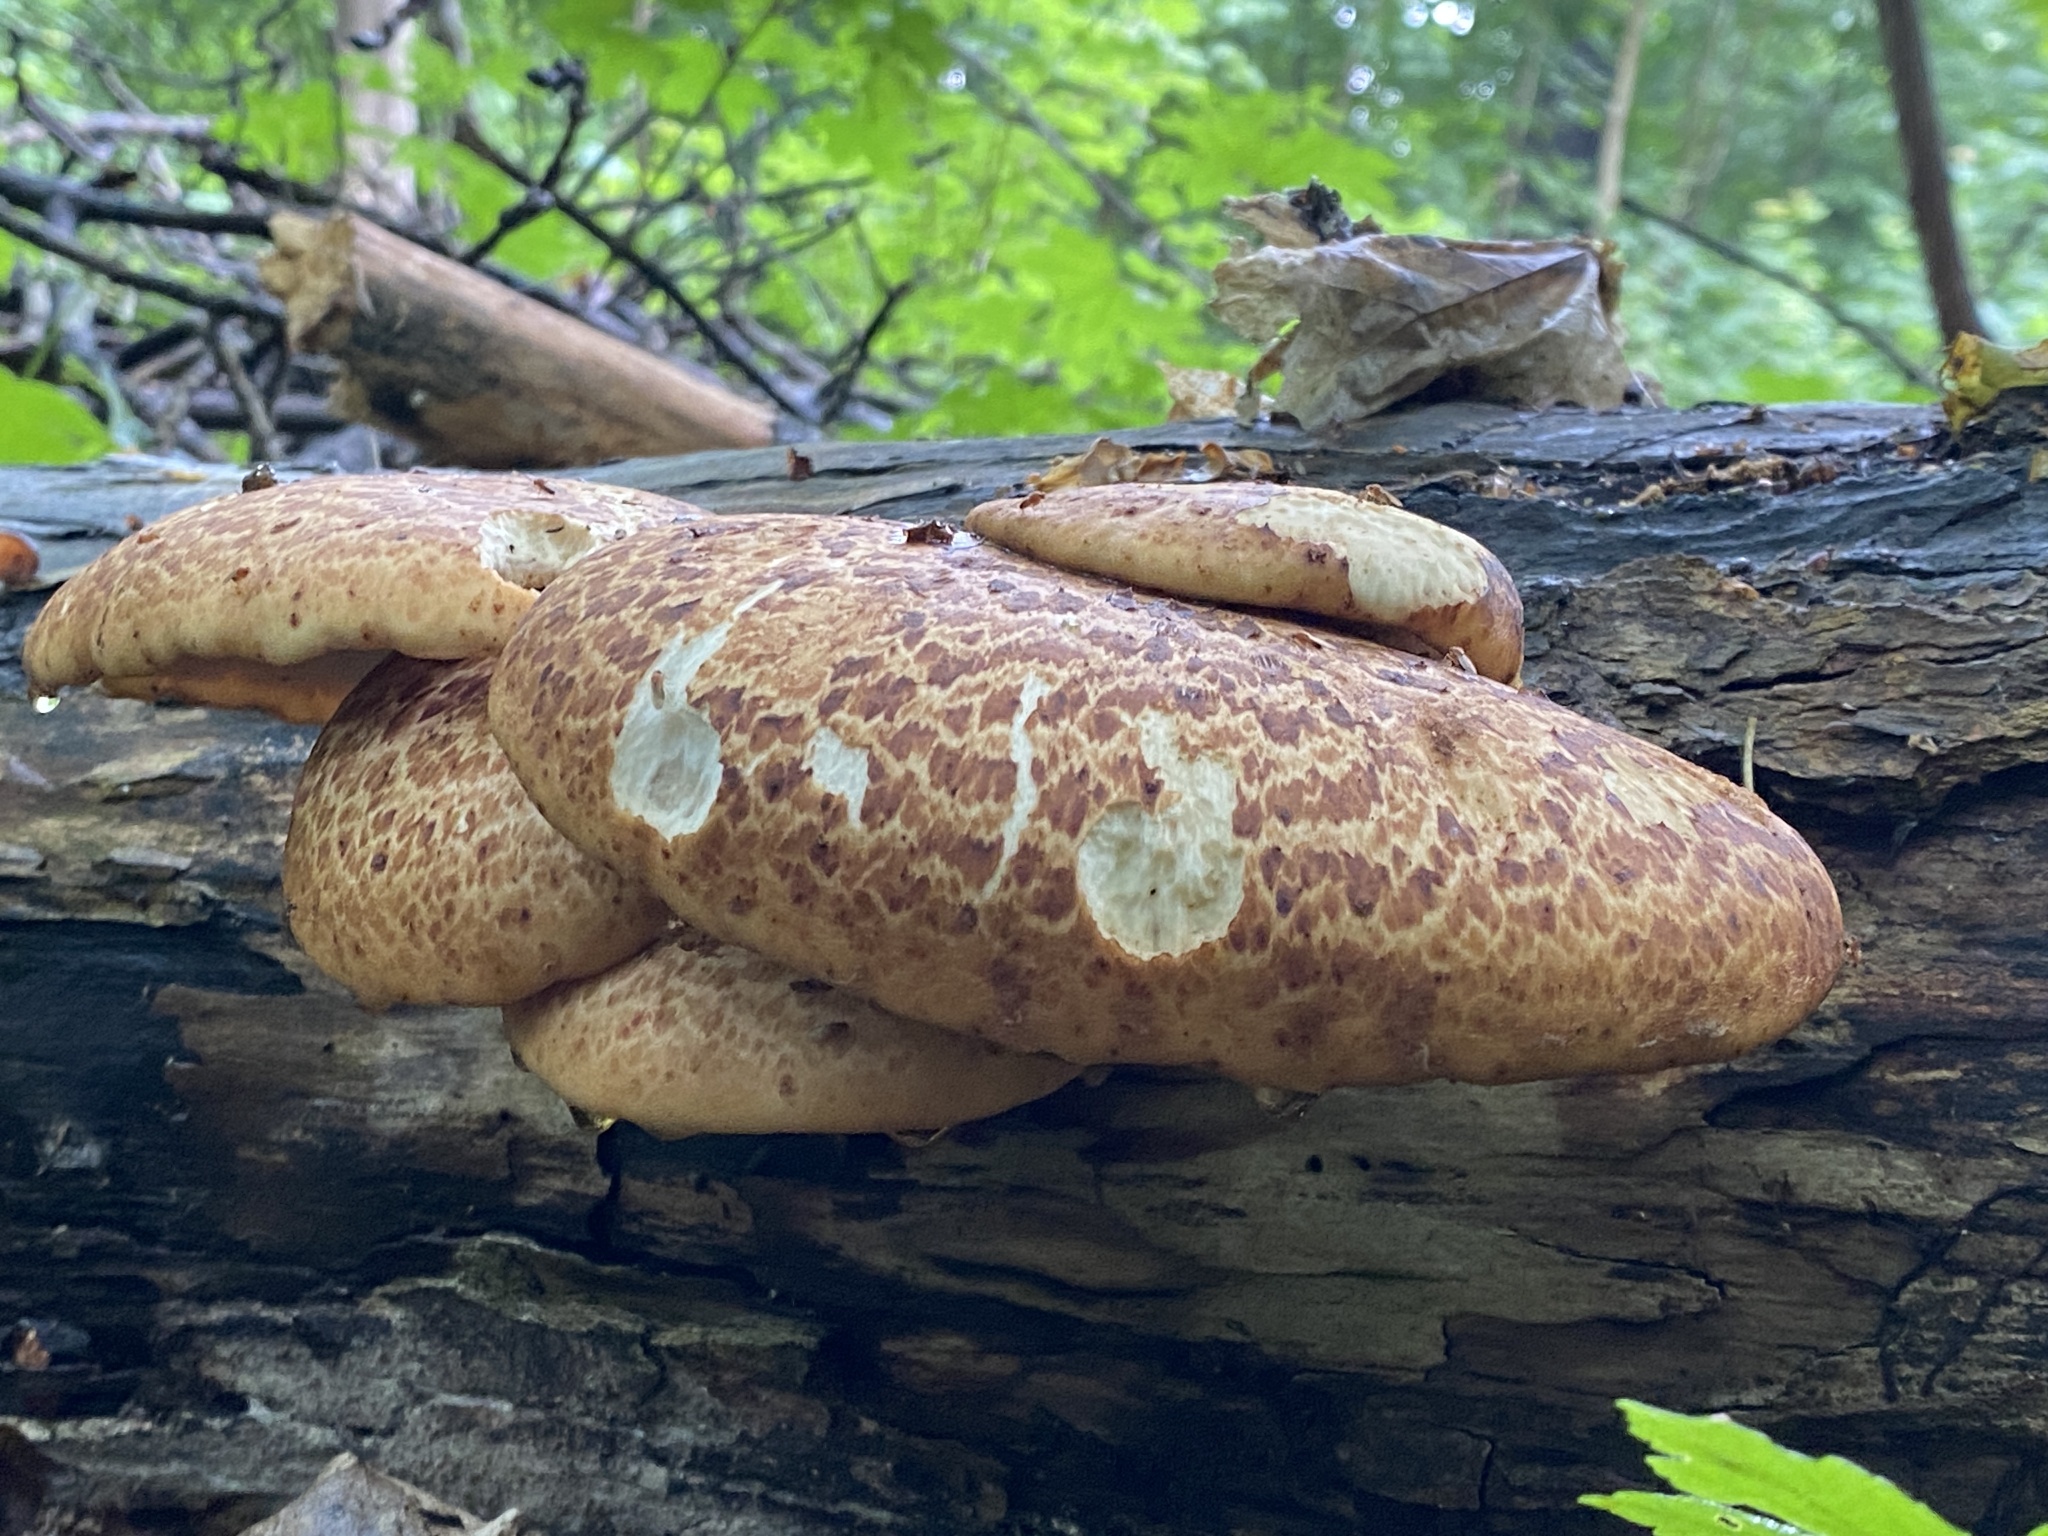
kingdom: Fungi
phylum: Basidiomycota
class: Agaricomycetes
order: Polyporales
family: Polyporaceae
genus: Cerioporus
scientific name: Cerioporus squamosus
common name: Dryad's saddle
